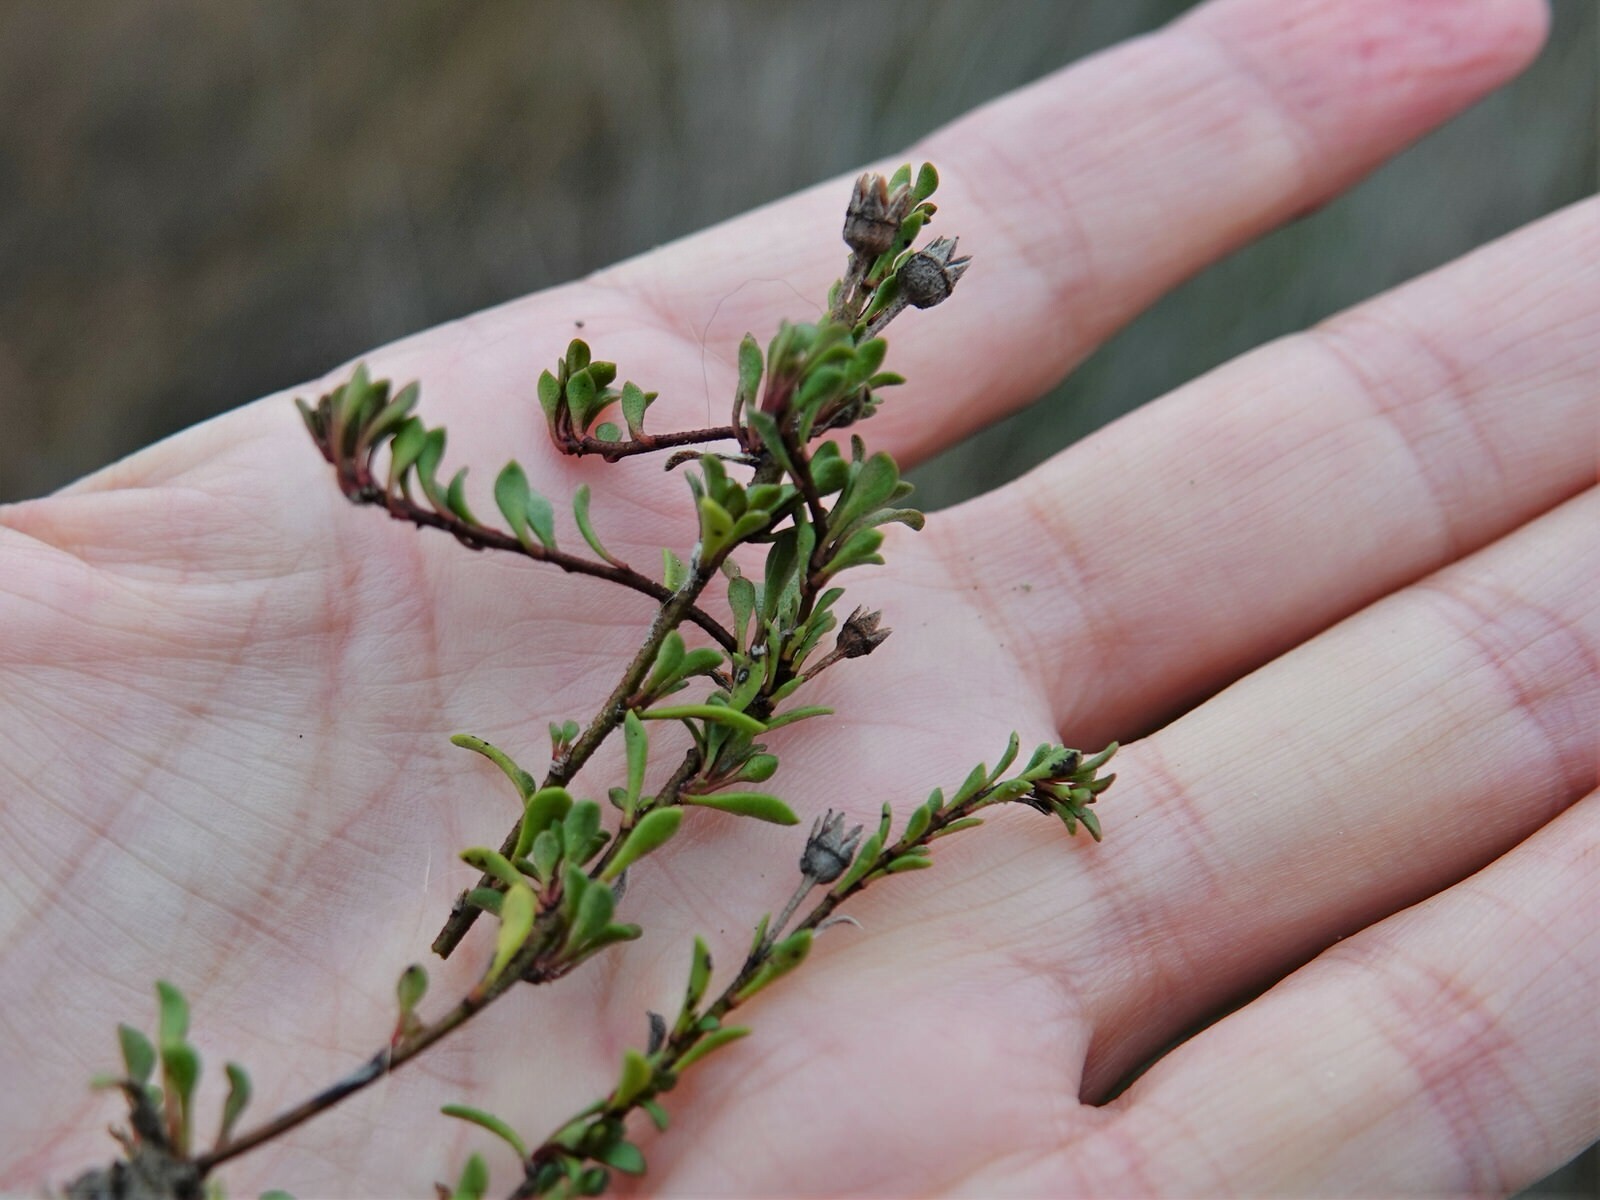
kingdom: Plantae
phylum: Tracheophyta
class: Magnoliopsida
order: Ericales
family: Primulaceae
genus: Samolus
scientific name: Samolus repens
